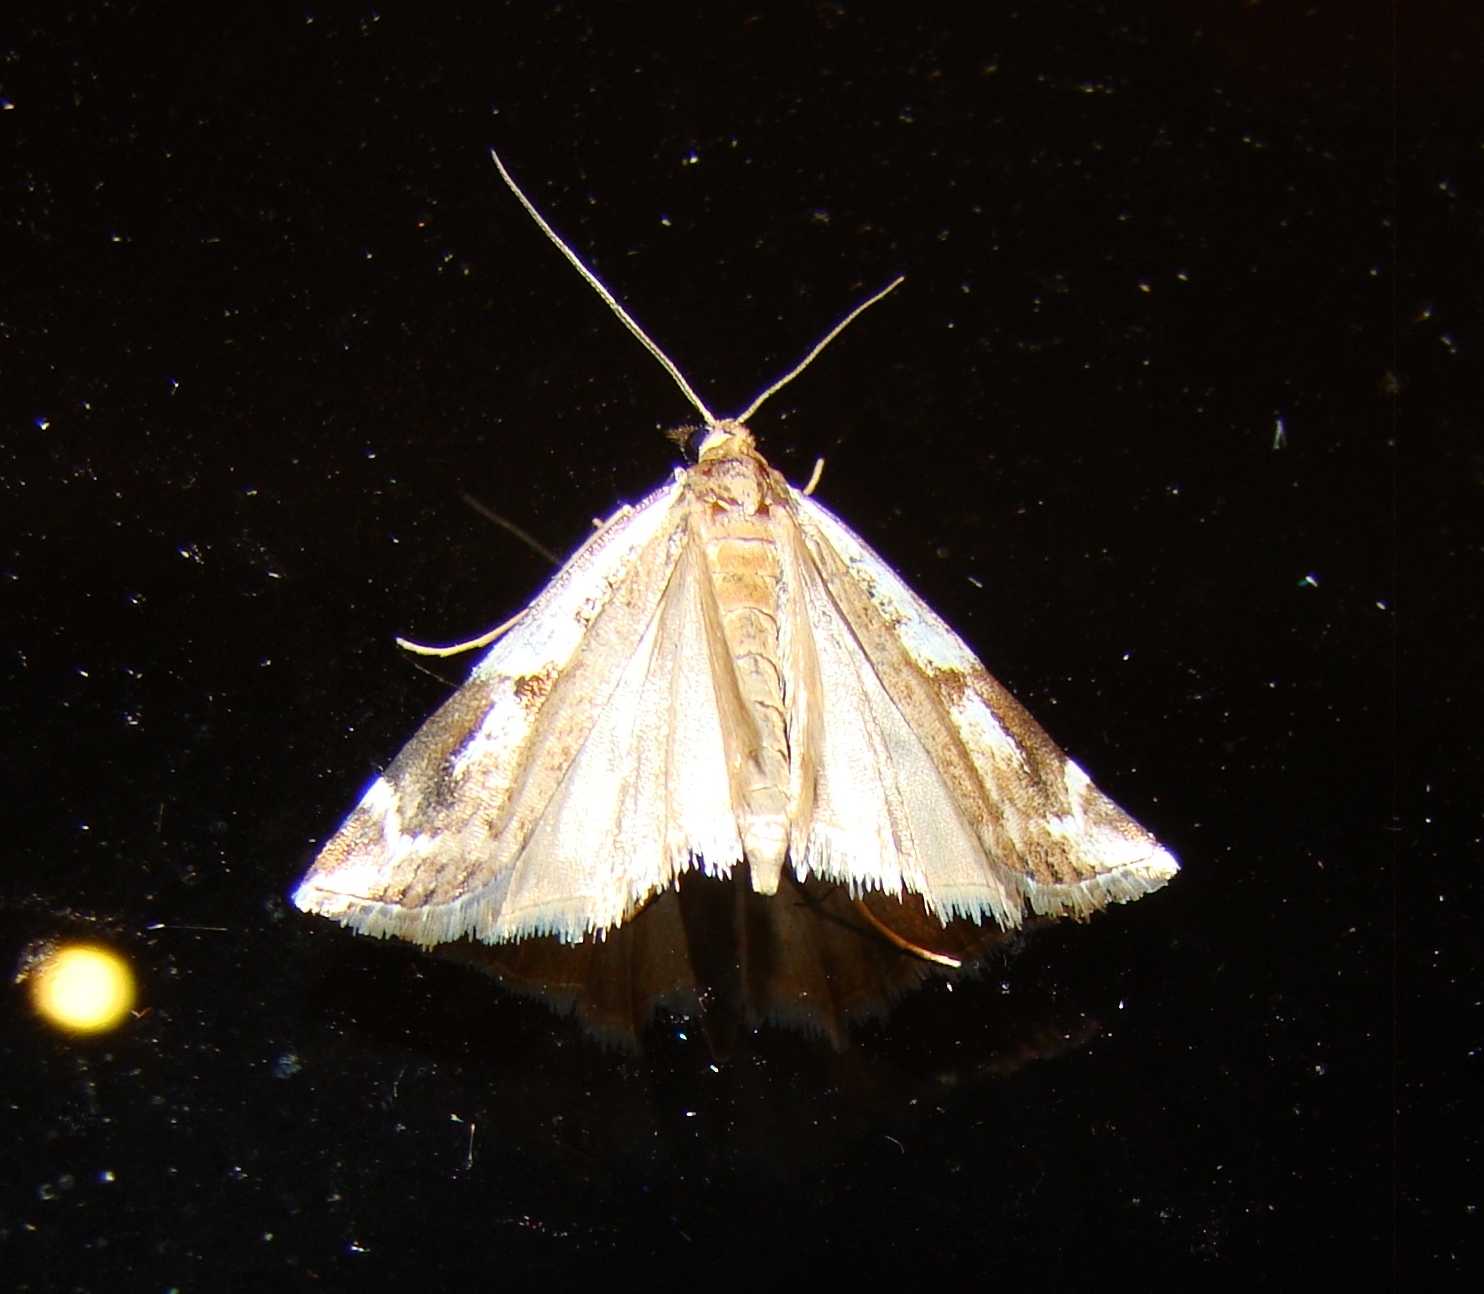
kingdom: Animalia
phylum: Arthropoda
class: Insecta
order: Lepidoptera
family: Crambidae
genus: Orocrambus
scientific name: Orocrambus vulgaris
